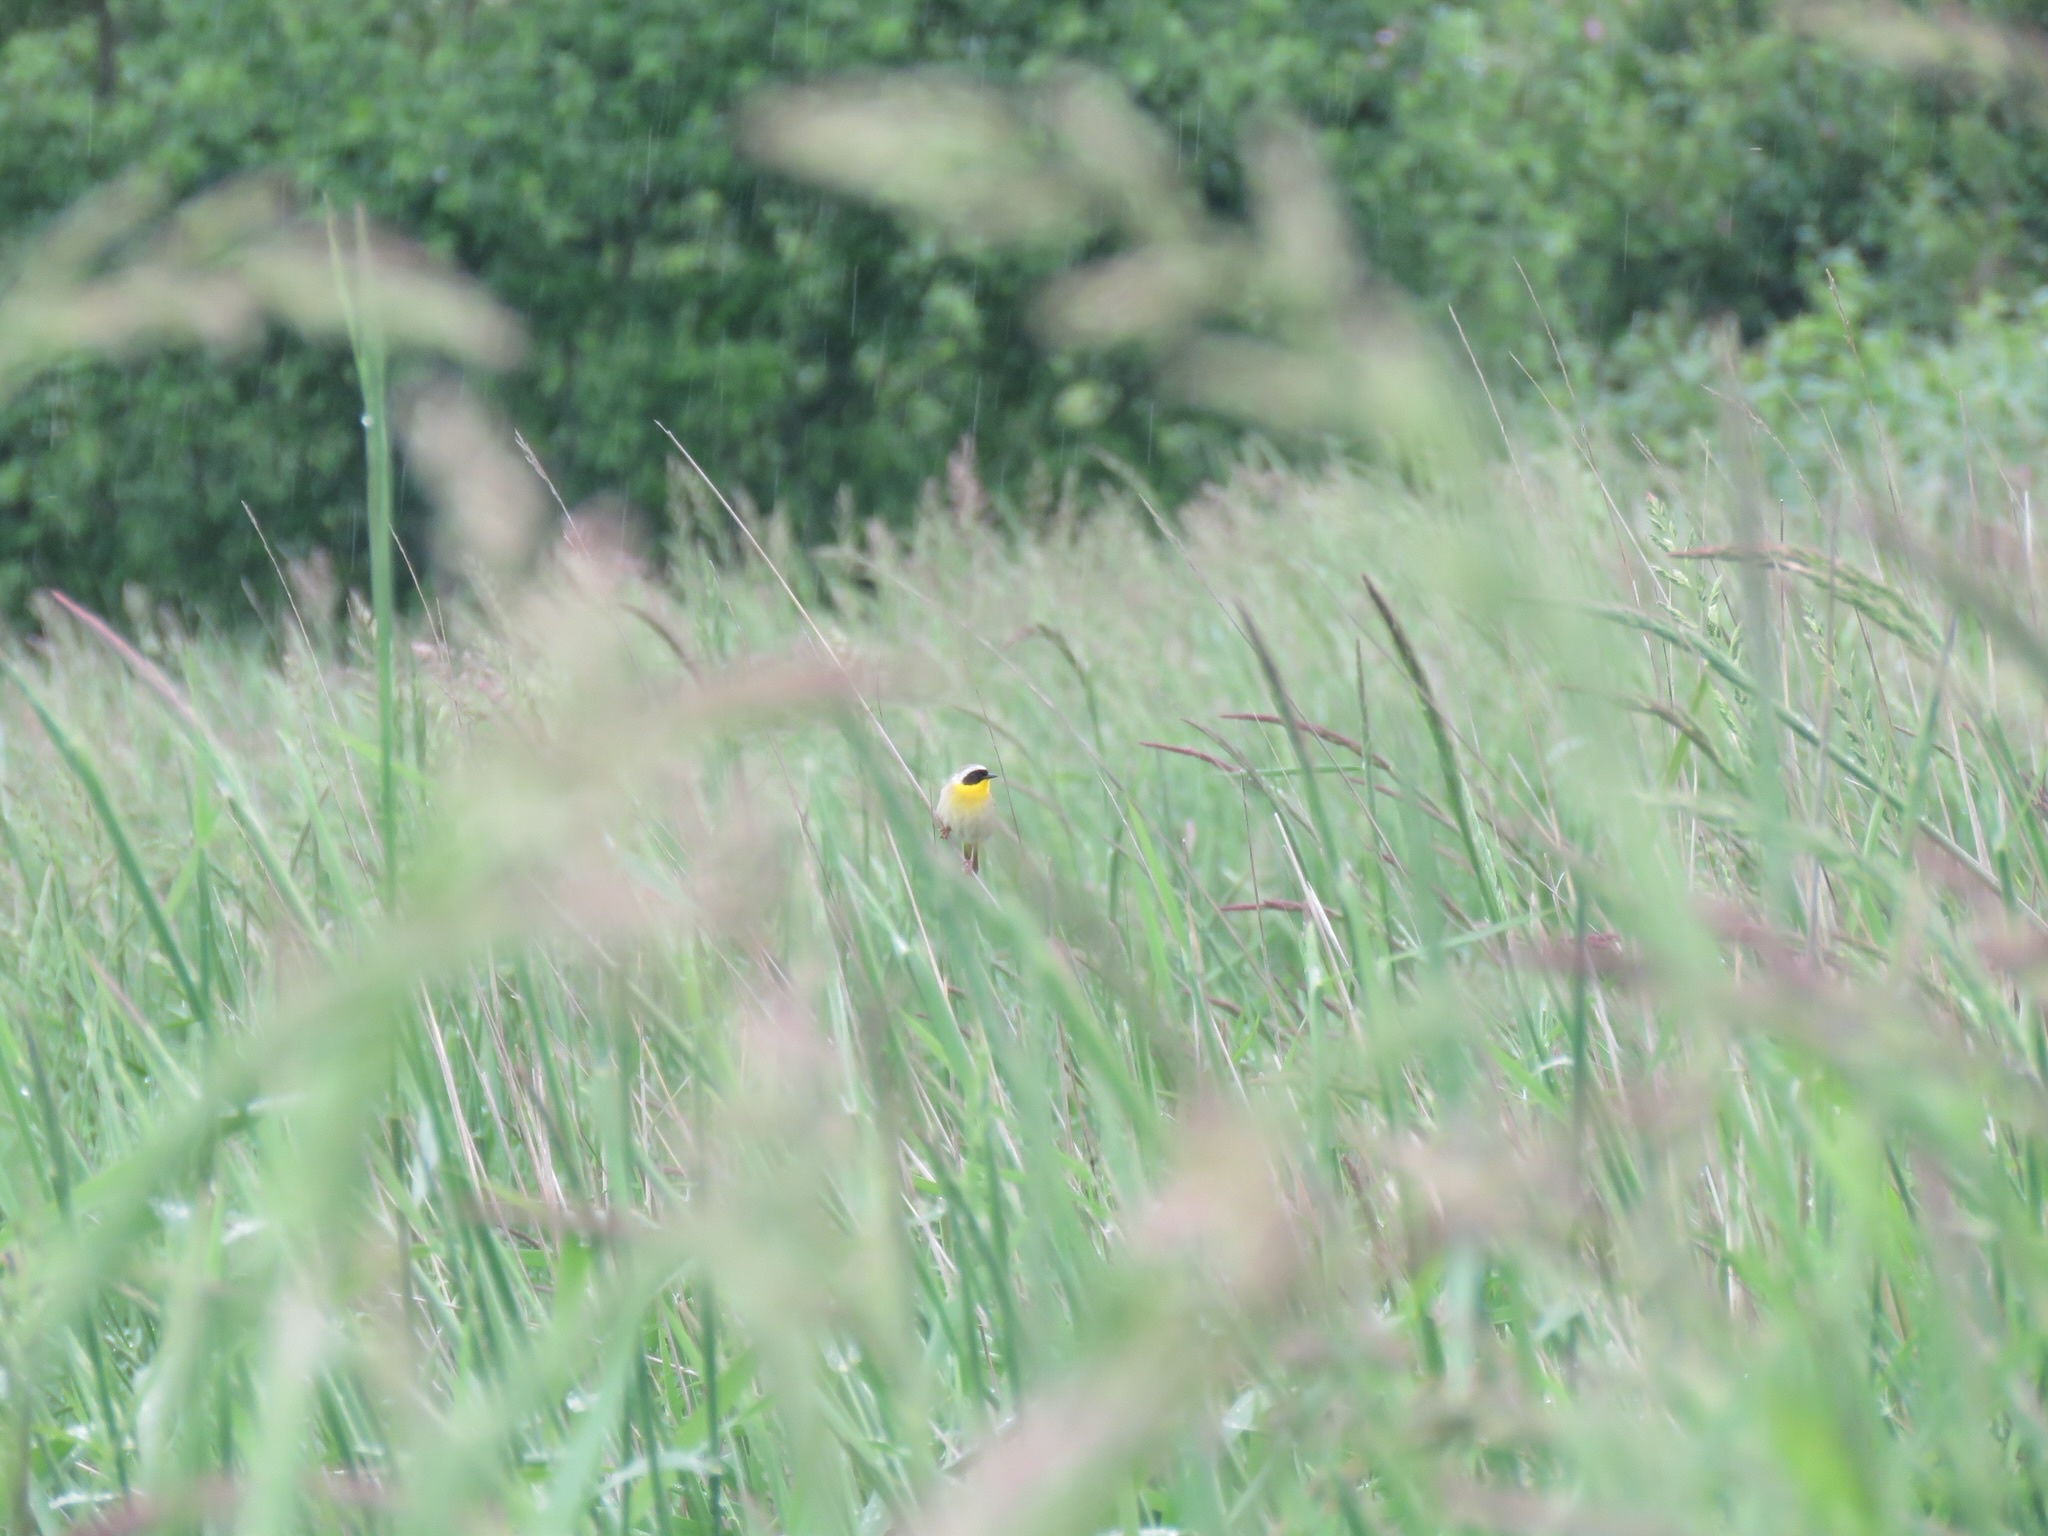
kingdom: Animalia
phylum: Chordata
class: Aves
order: Passeriformes
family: Parulidae
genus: Geothlypis
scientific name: Geothlypis trichas
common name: Common yellowthroat
